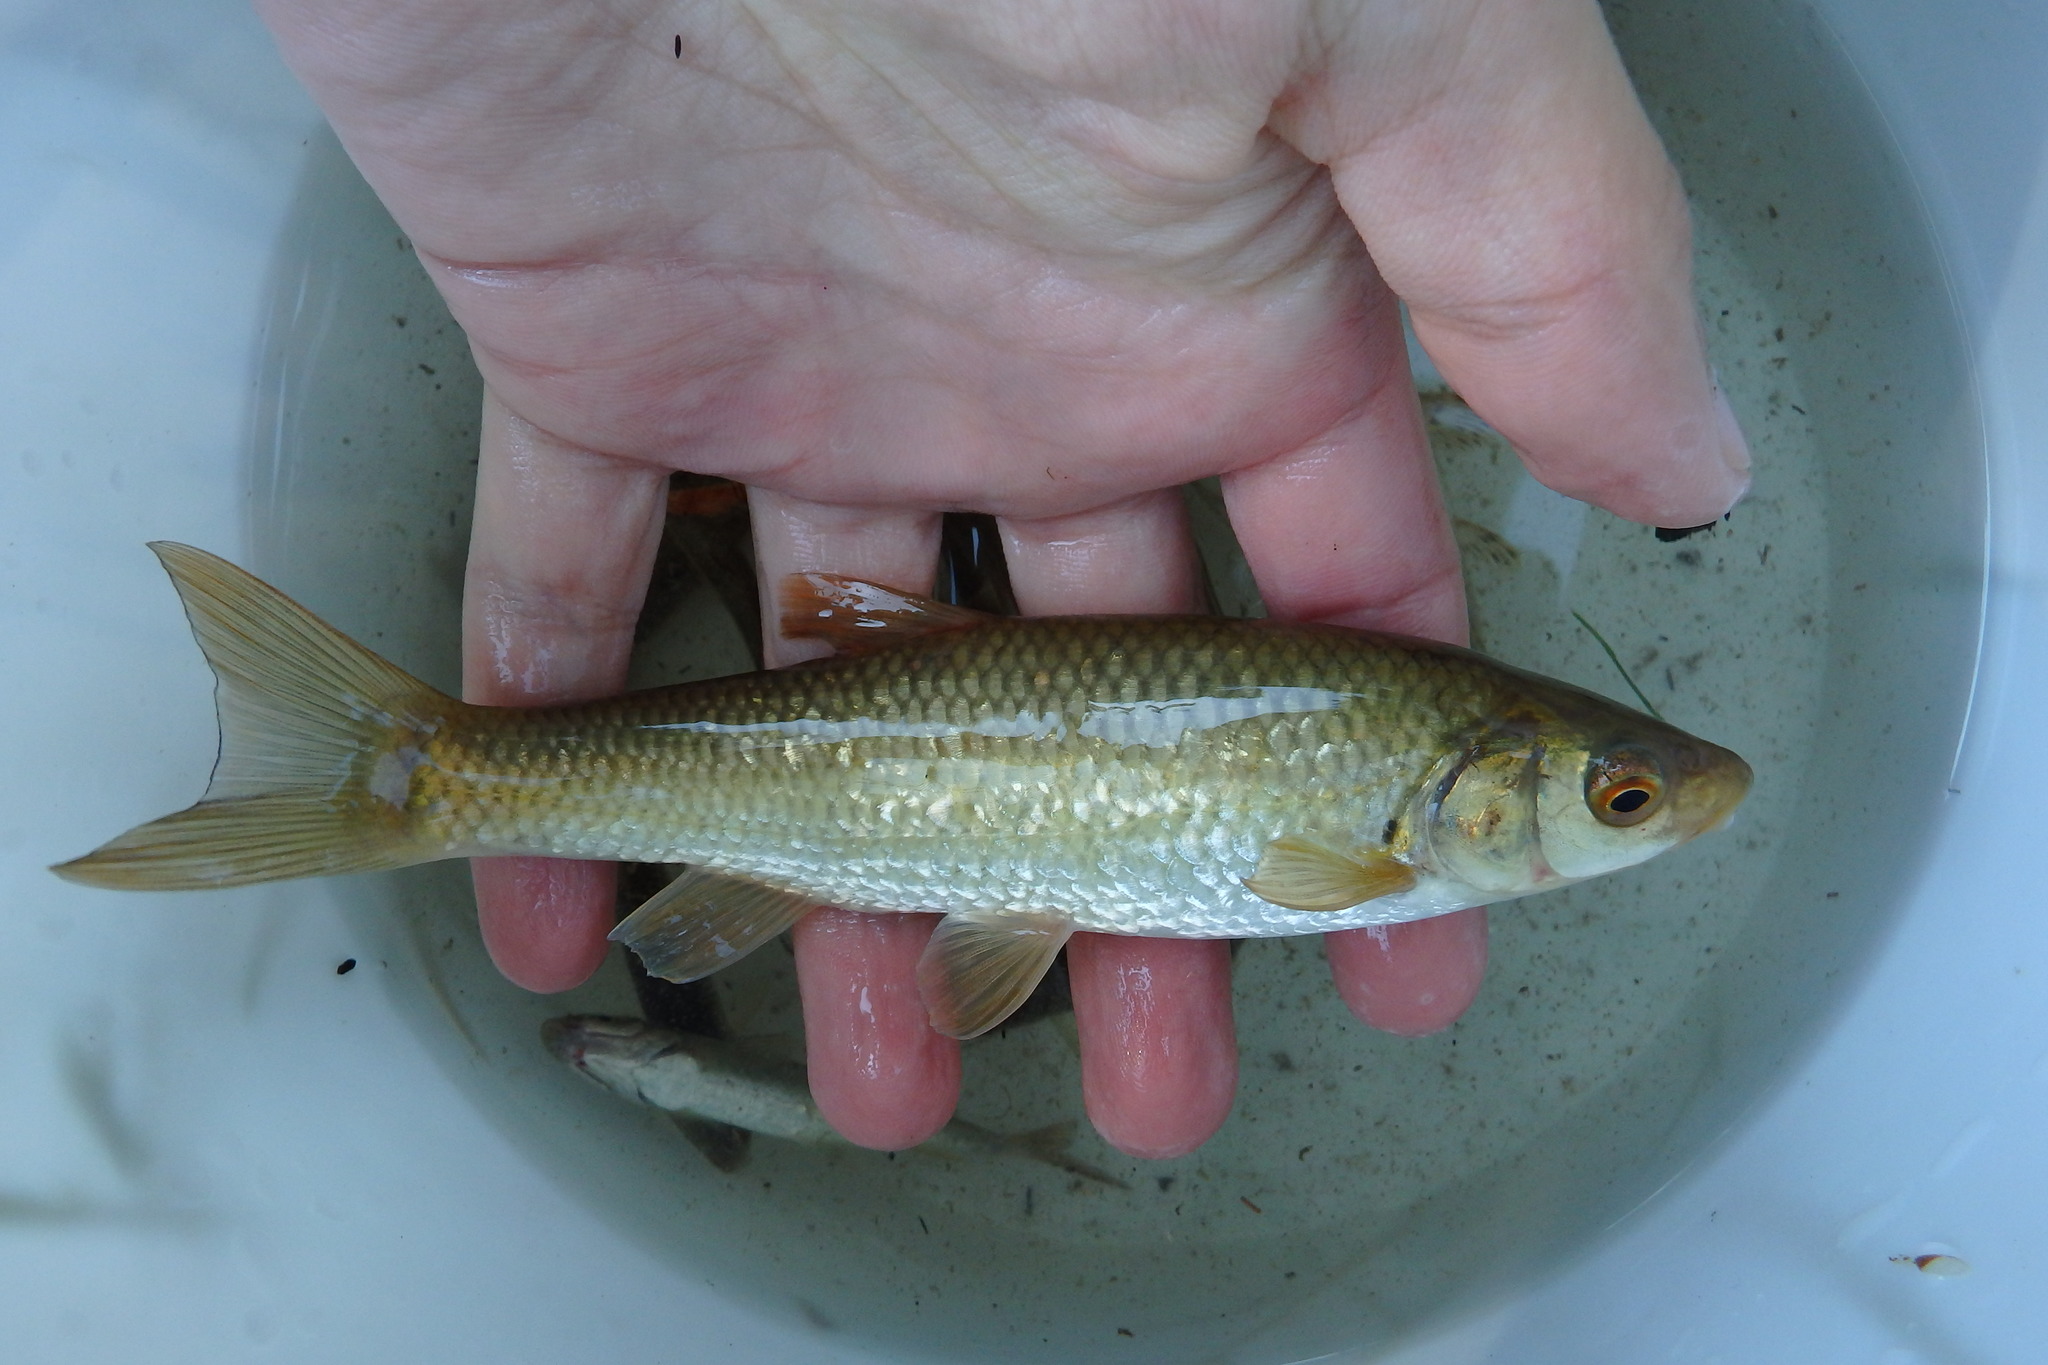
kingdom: Animalia
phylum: Chordata
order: Cypriniformes
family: Cyprinidae
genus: Squalius
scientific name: Squalius carolitertii
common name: Chub
